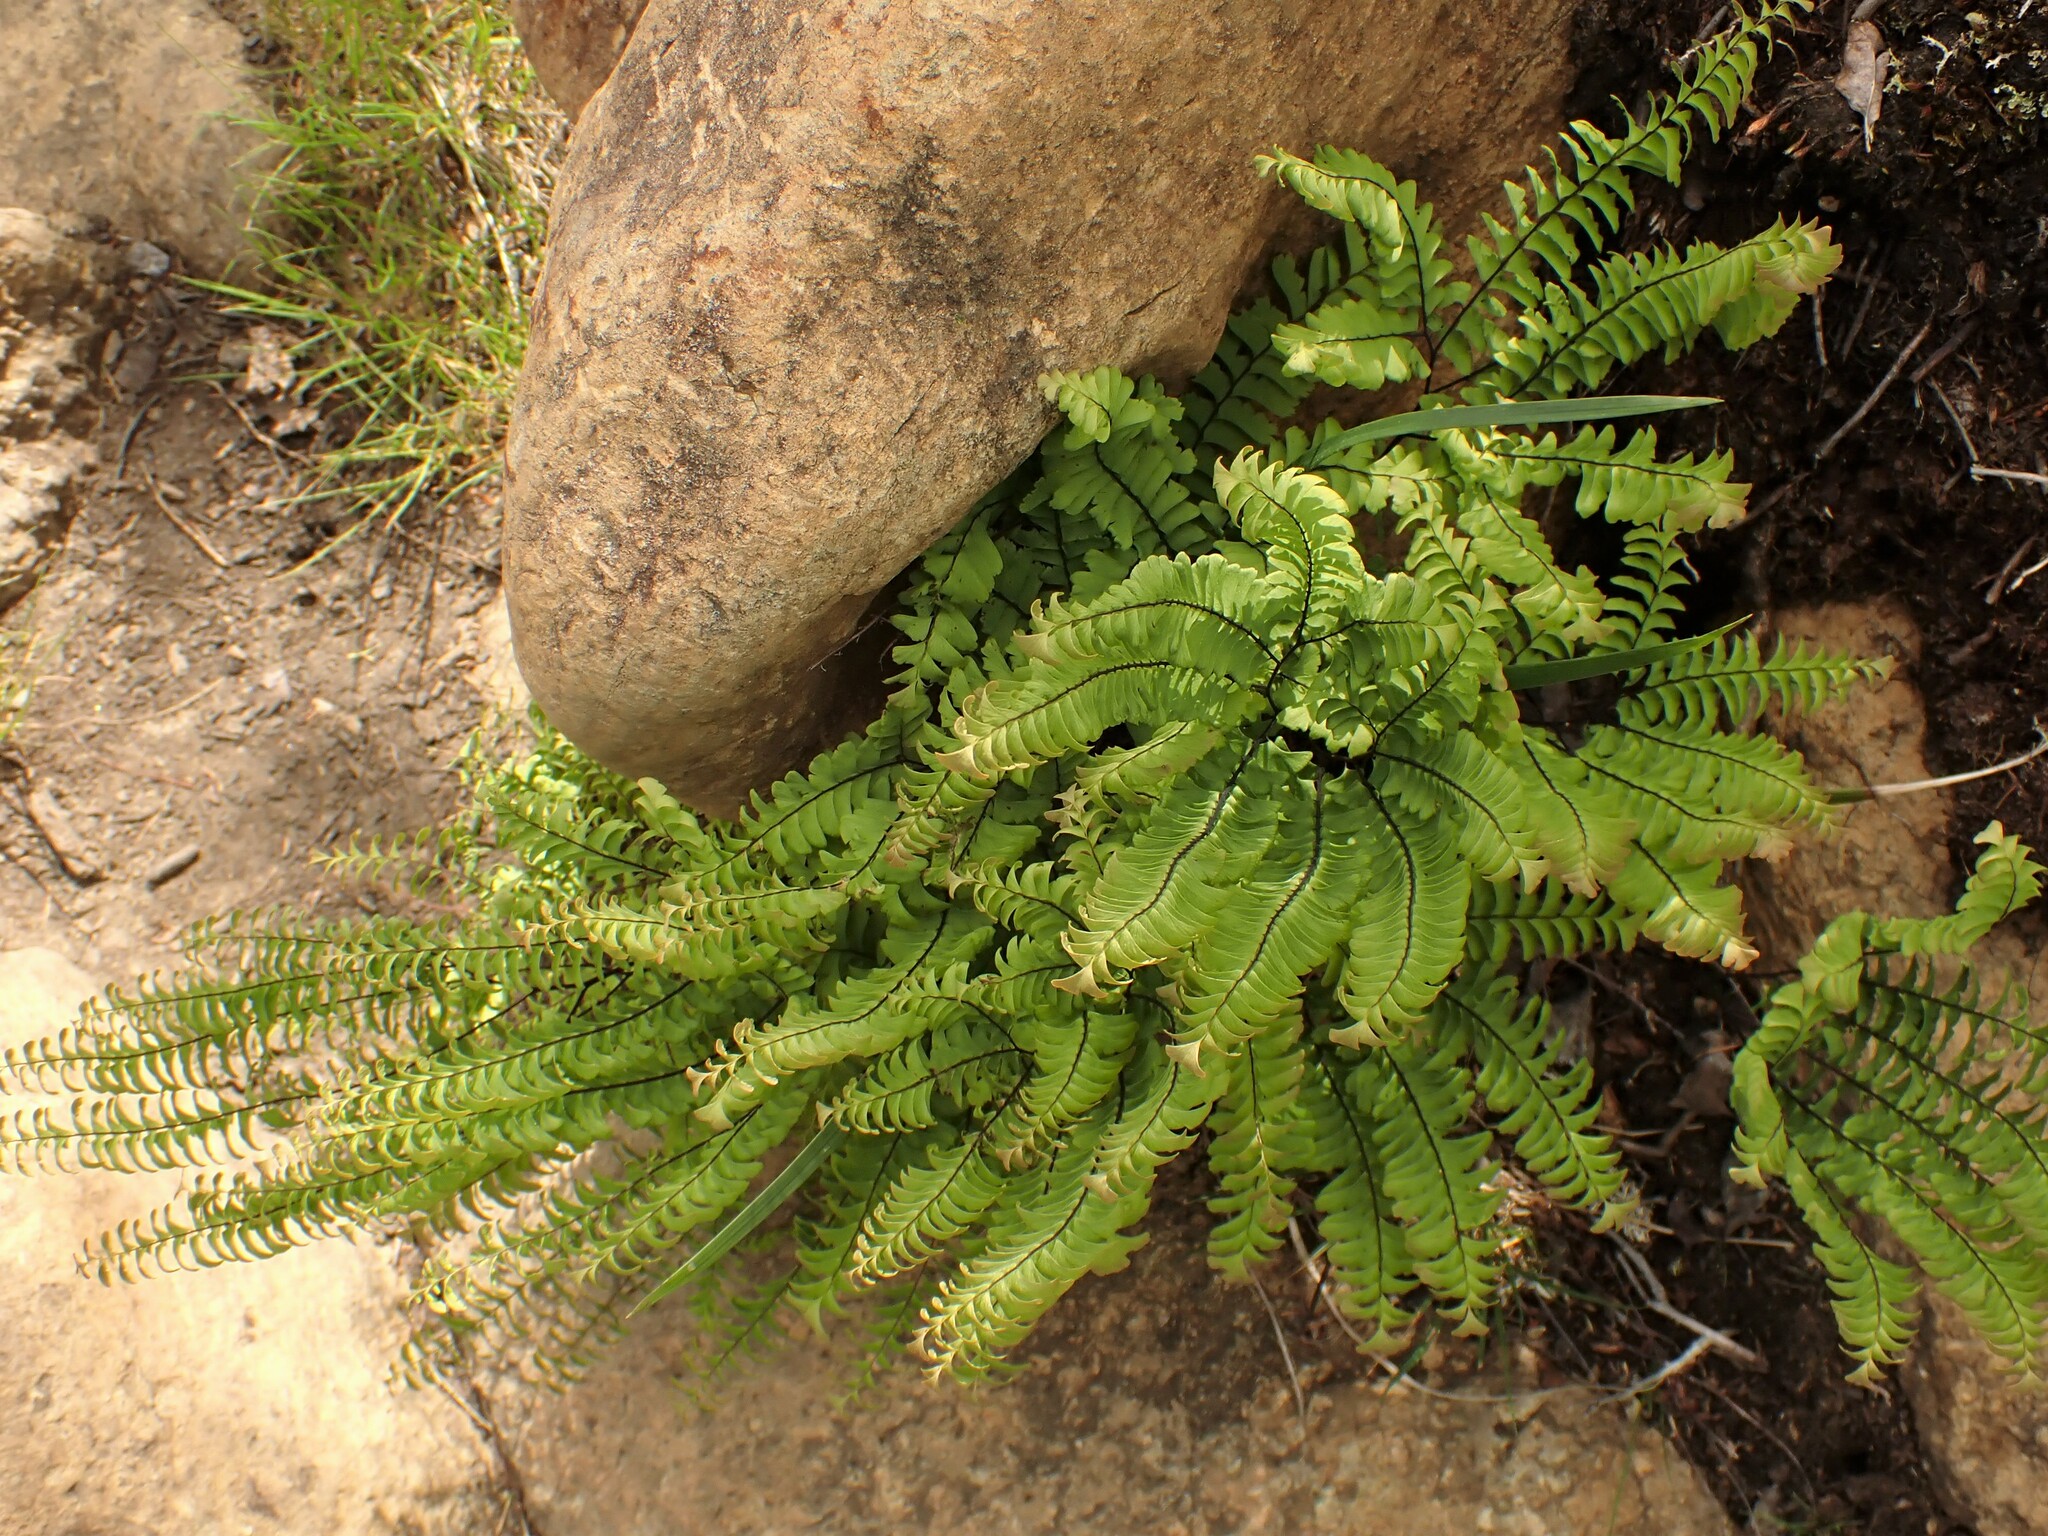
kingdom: Plantae
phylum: Tracheophyta
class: Polypodiopsida
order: Polypodiales
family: Pteridaceae
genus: Adiantum
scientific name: Adiantum aleuticum
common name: Aleutian maidenhair fern
